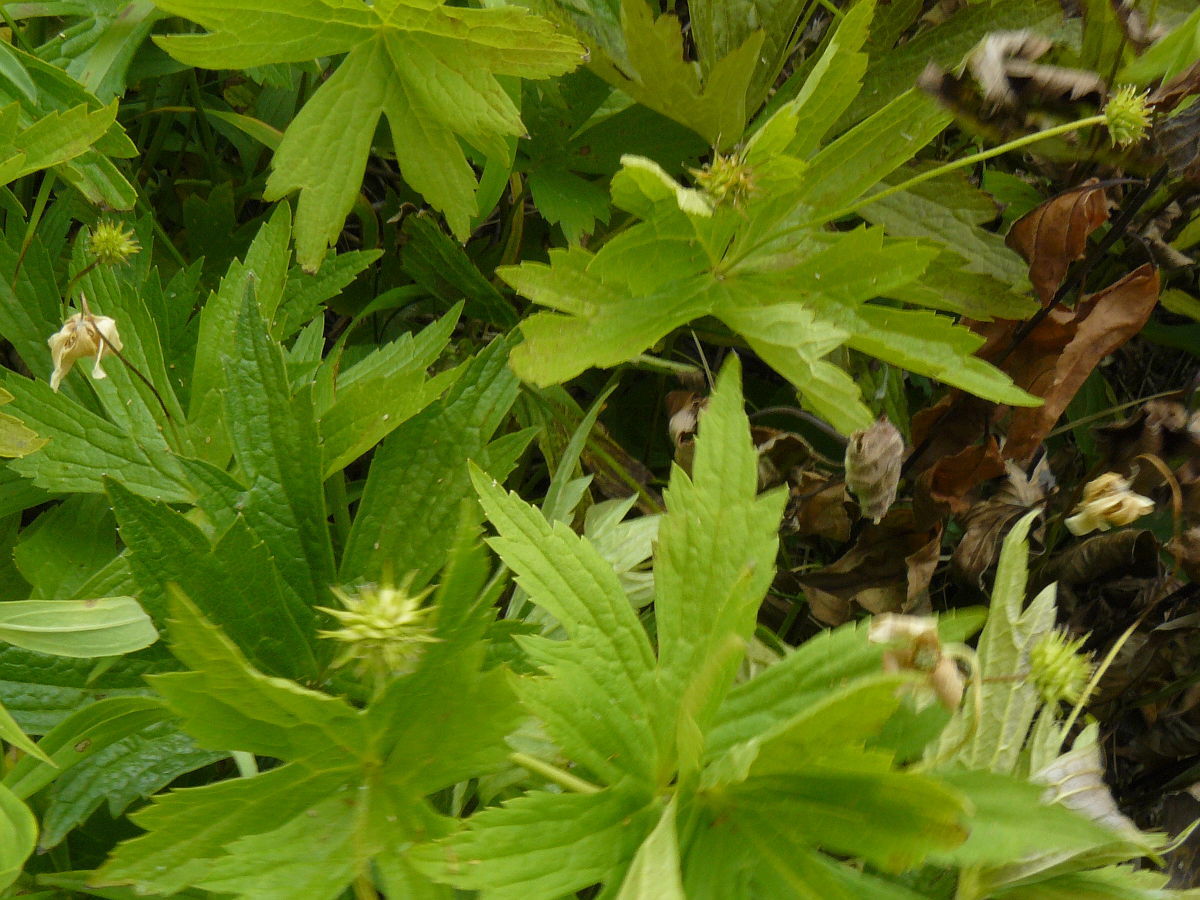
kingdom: Plantae
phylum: Tracheophyta
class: Magnoliopsida
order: Ranunculales
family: Ranunculaceae
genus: Anemonastrum
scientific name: Anemonastrum canadense
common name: Canada anemone
